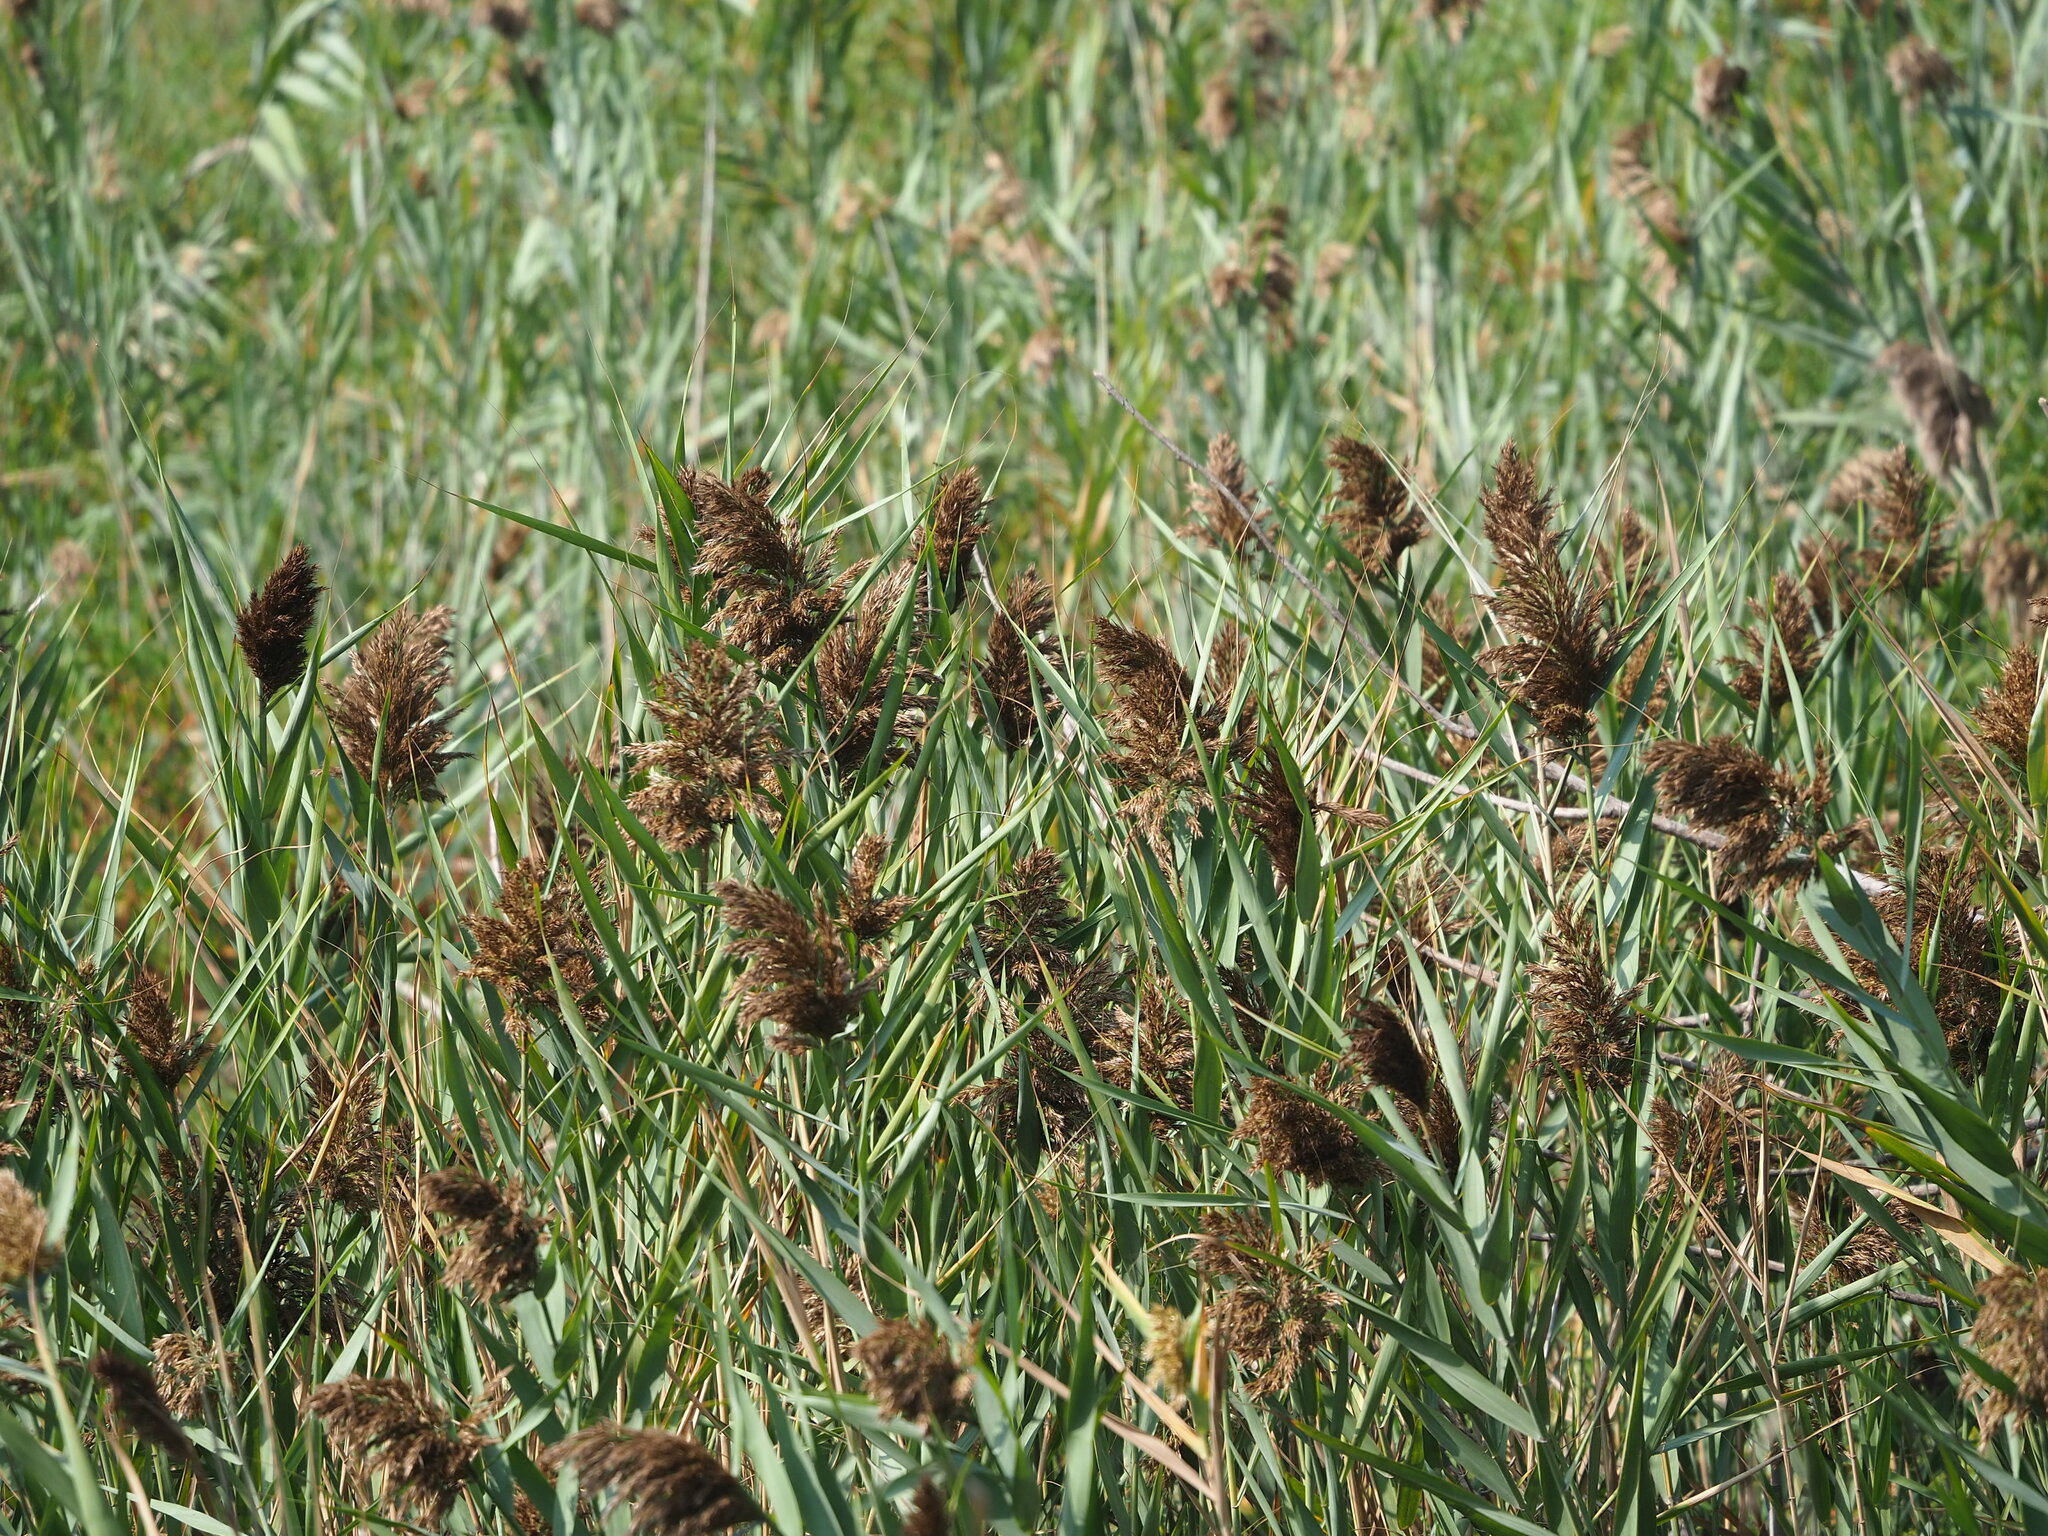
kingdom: Plantae
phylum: Tracheophyta
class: Liliopsida
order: Poales
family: Poaceae
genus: Phragmites
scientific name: Phragmites australis
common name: Common reed
